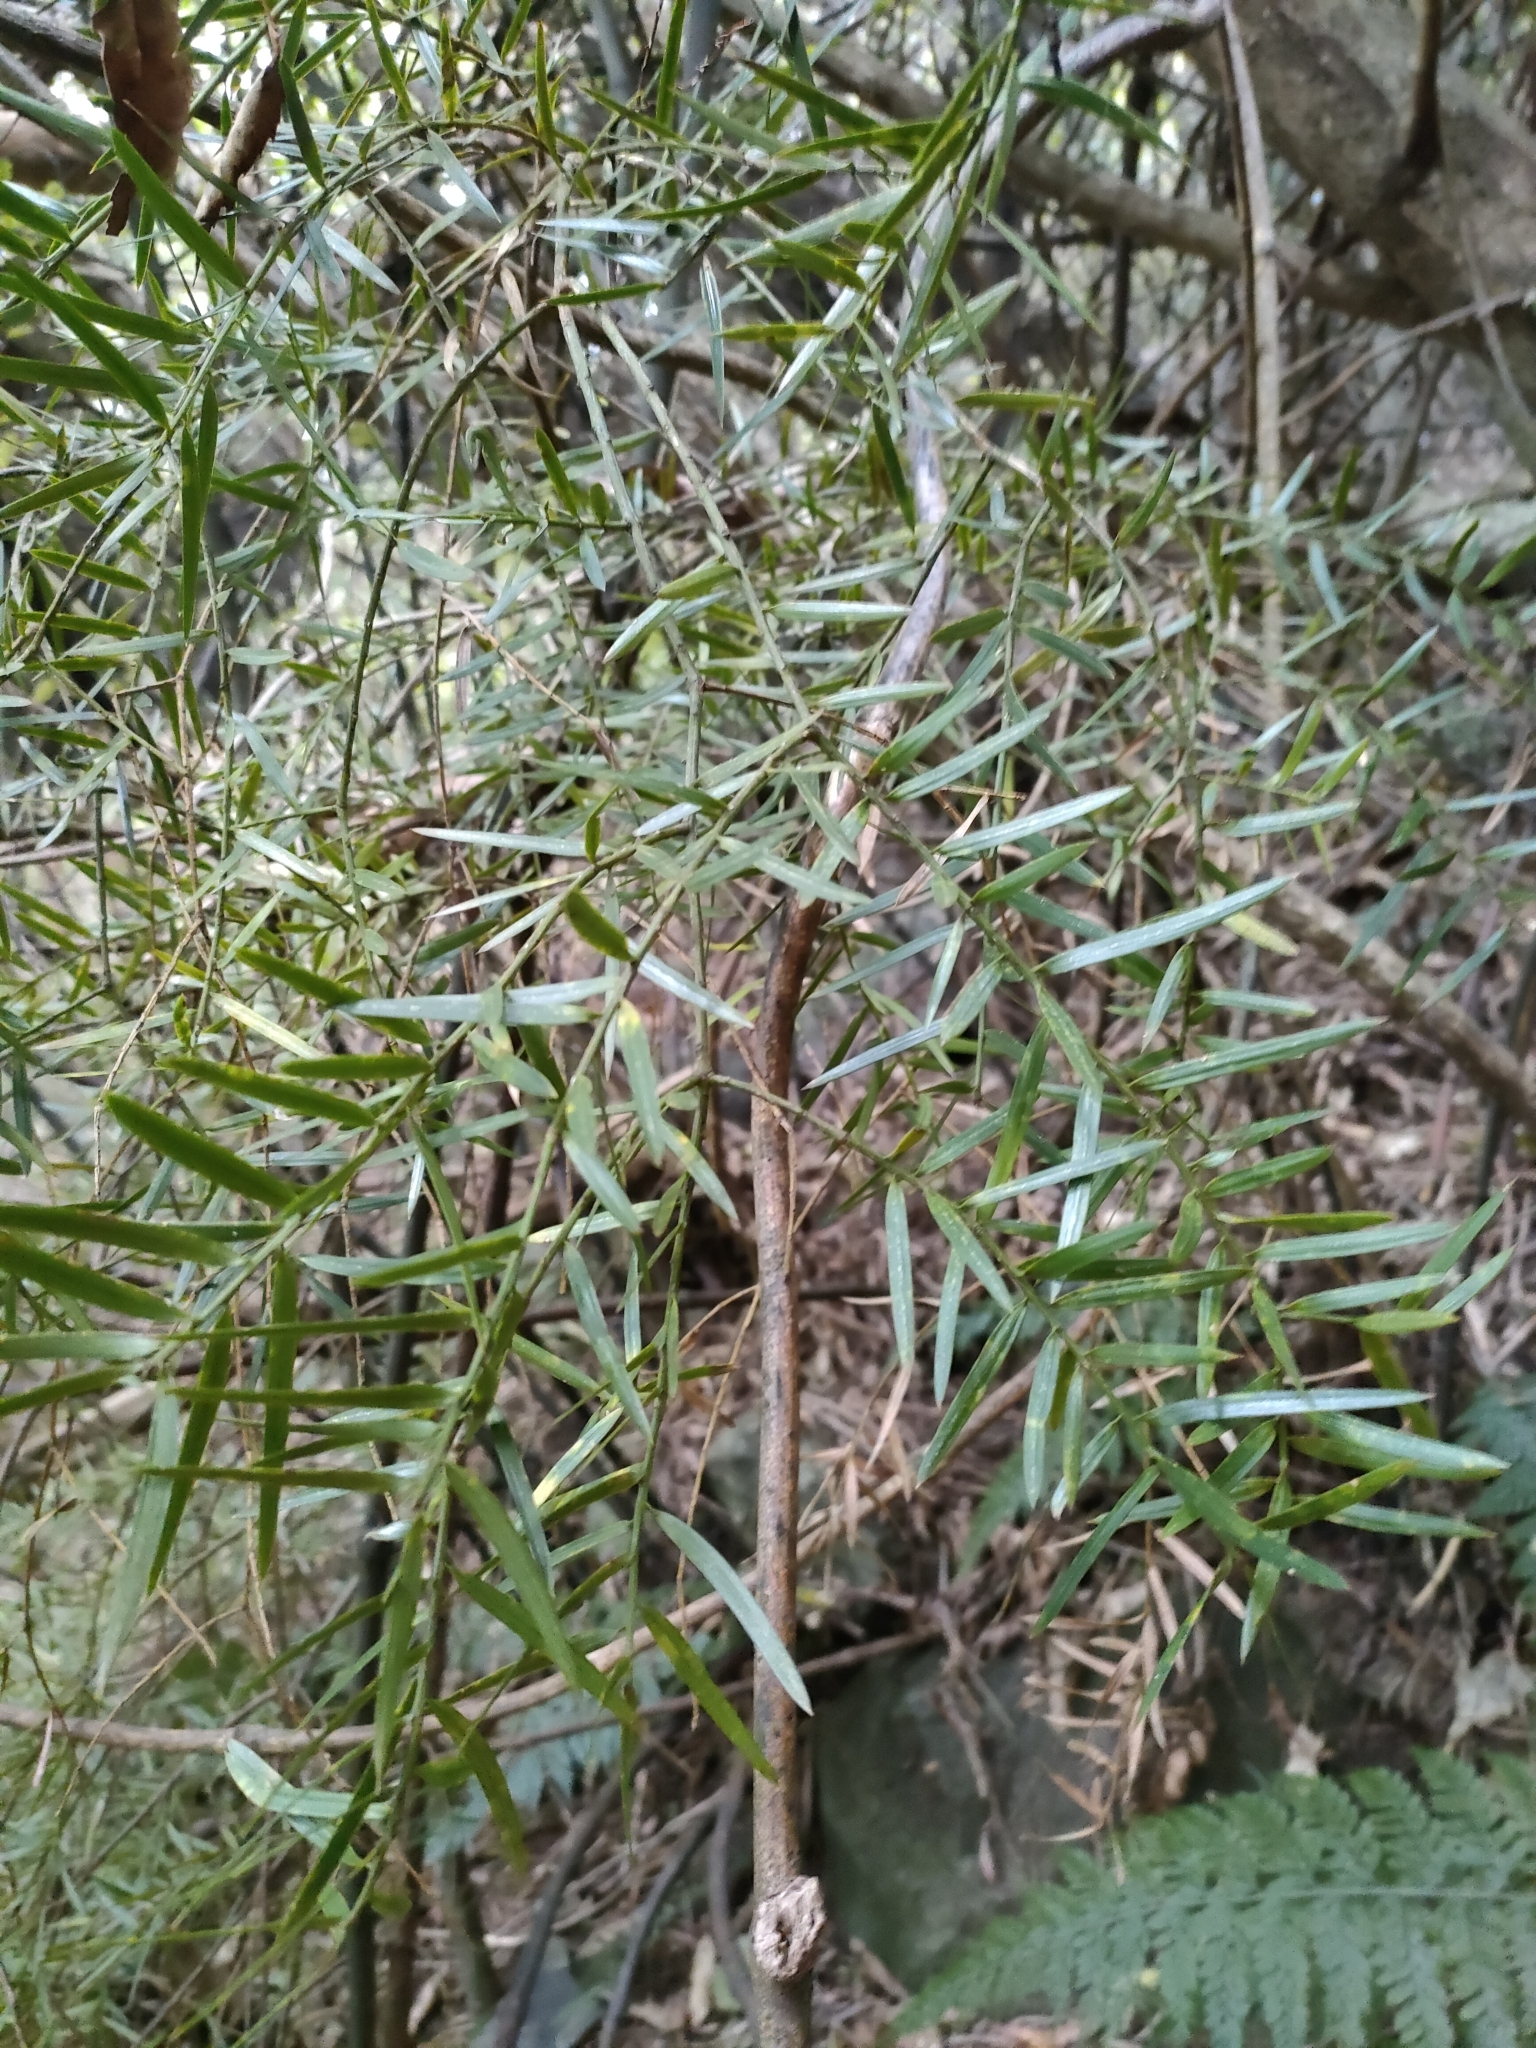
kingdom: Plantae
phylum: Tracheophyta
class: Pinopsida
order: Pinales
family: Podocarpaceae
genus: Podocarpus
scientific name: Podocarpus totara
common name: Totara
